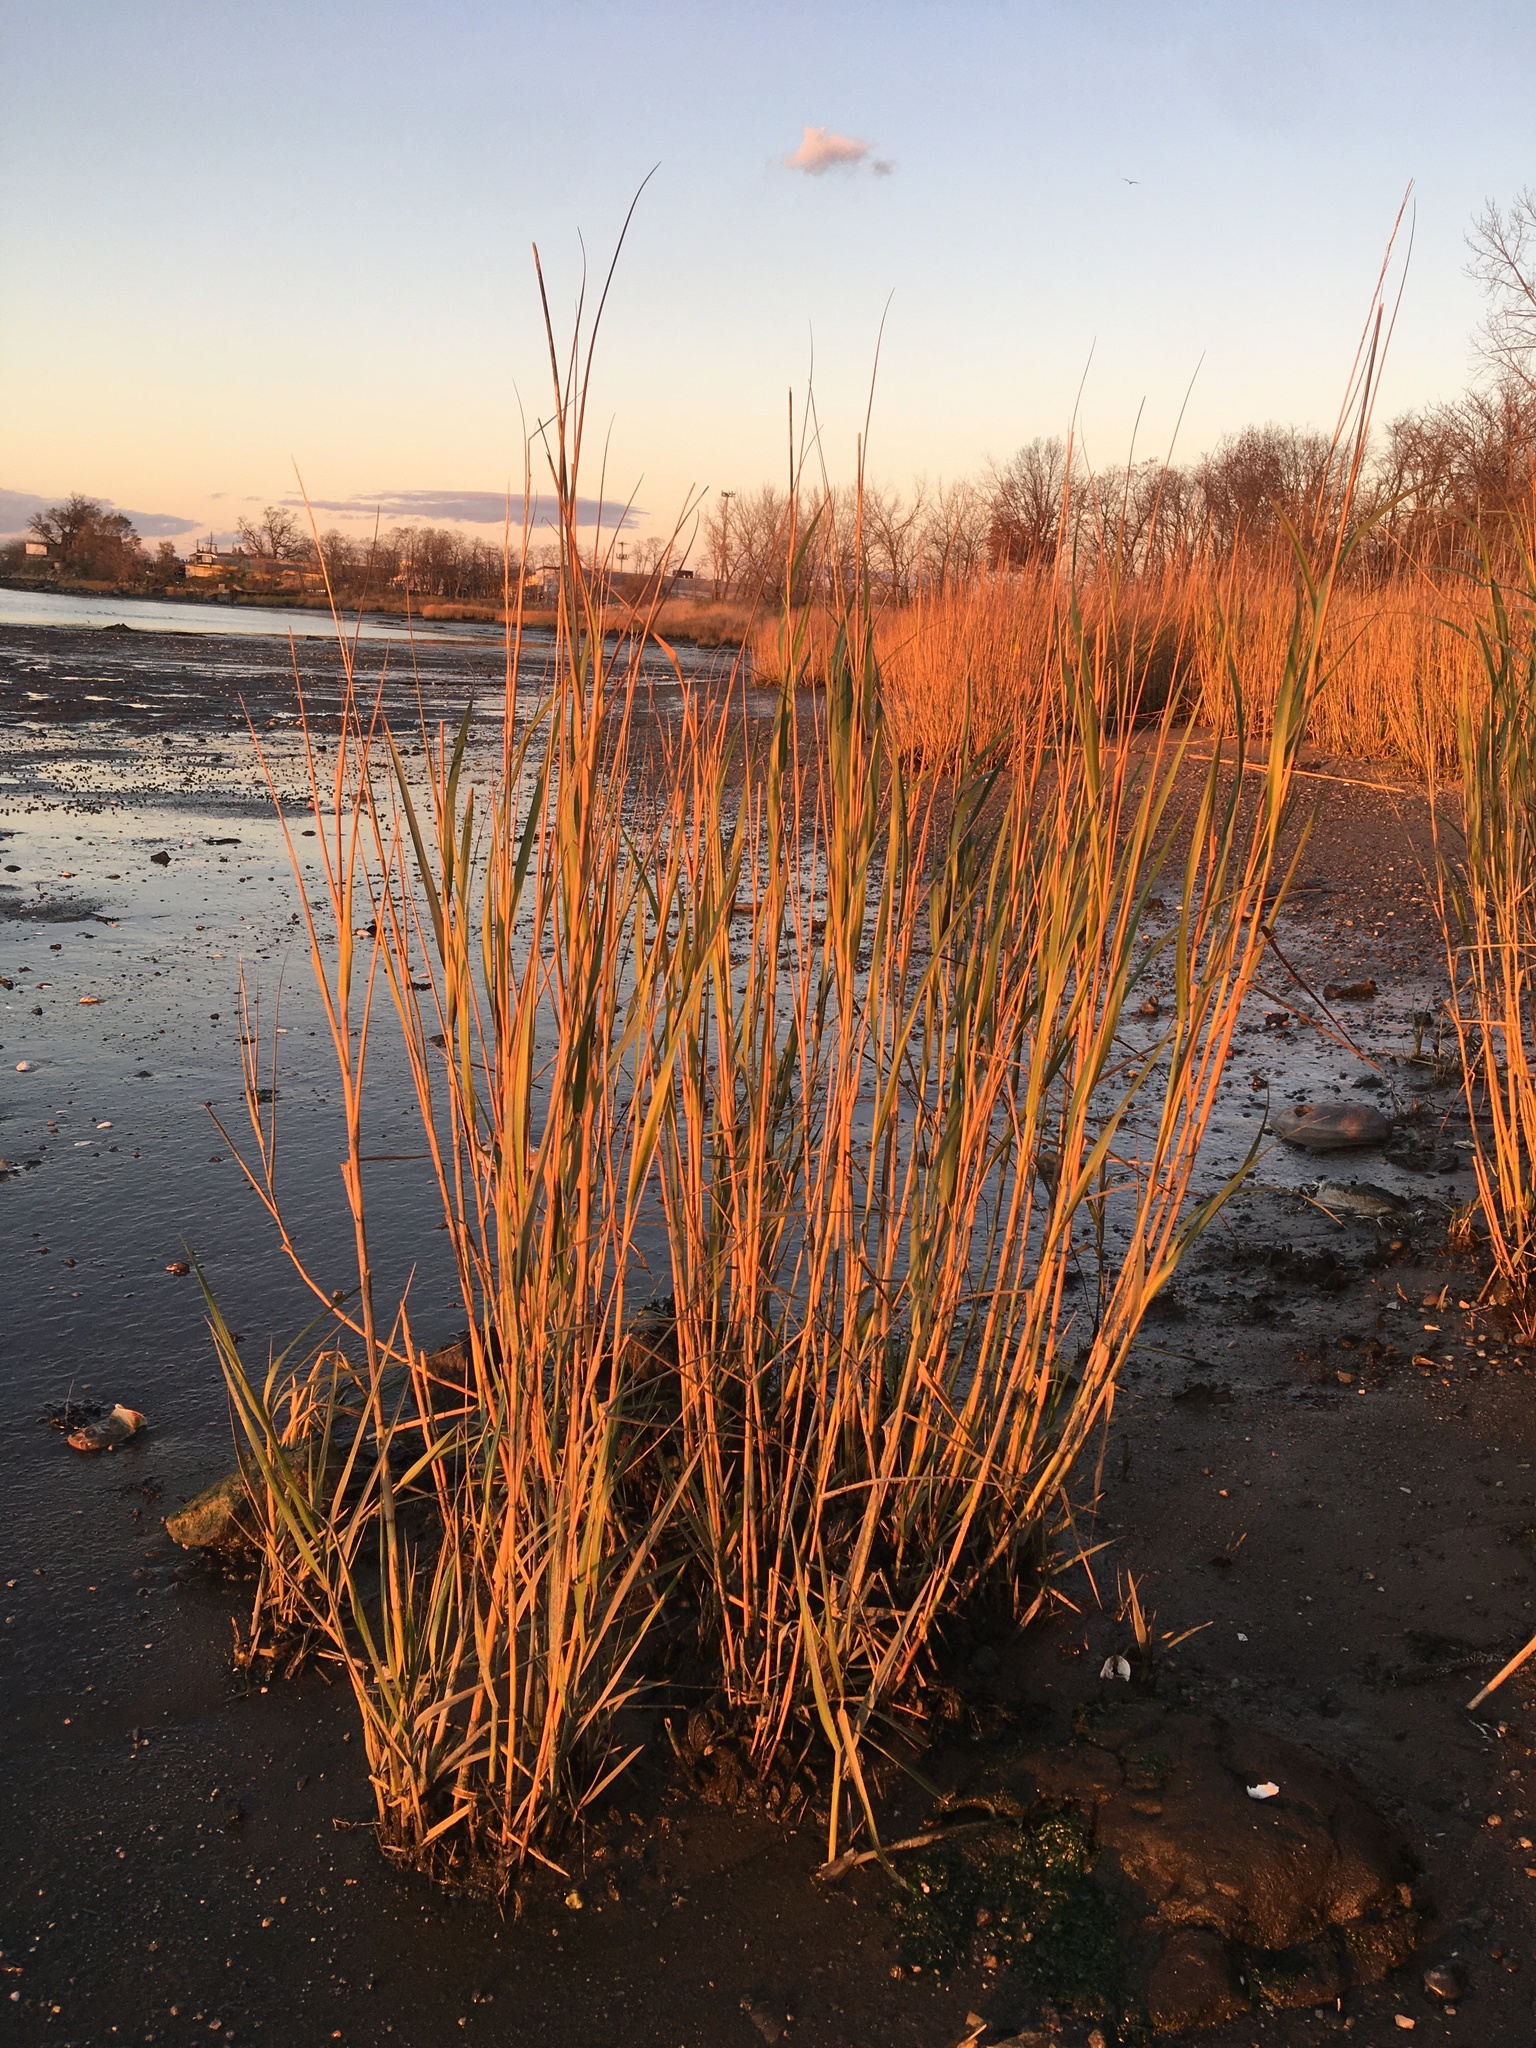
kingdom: Plantae
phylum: Tracheophyta
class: Liliopsida
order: Poales
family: Poaceae
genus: Sporobolus
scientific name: Sporobolus alterniflorus
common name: Atlantic cordgrass
